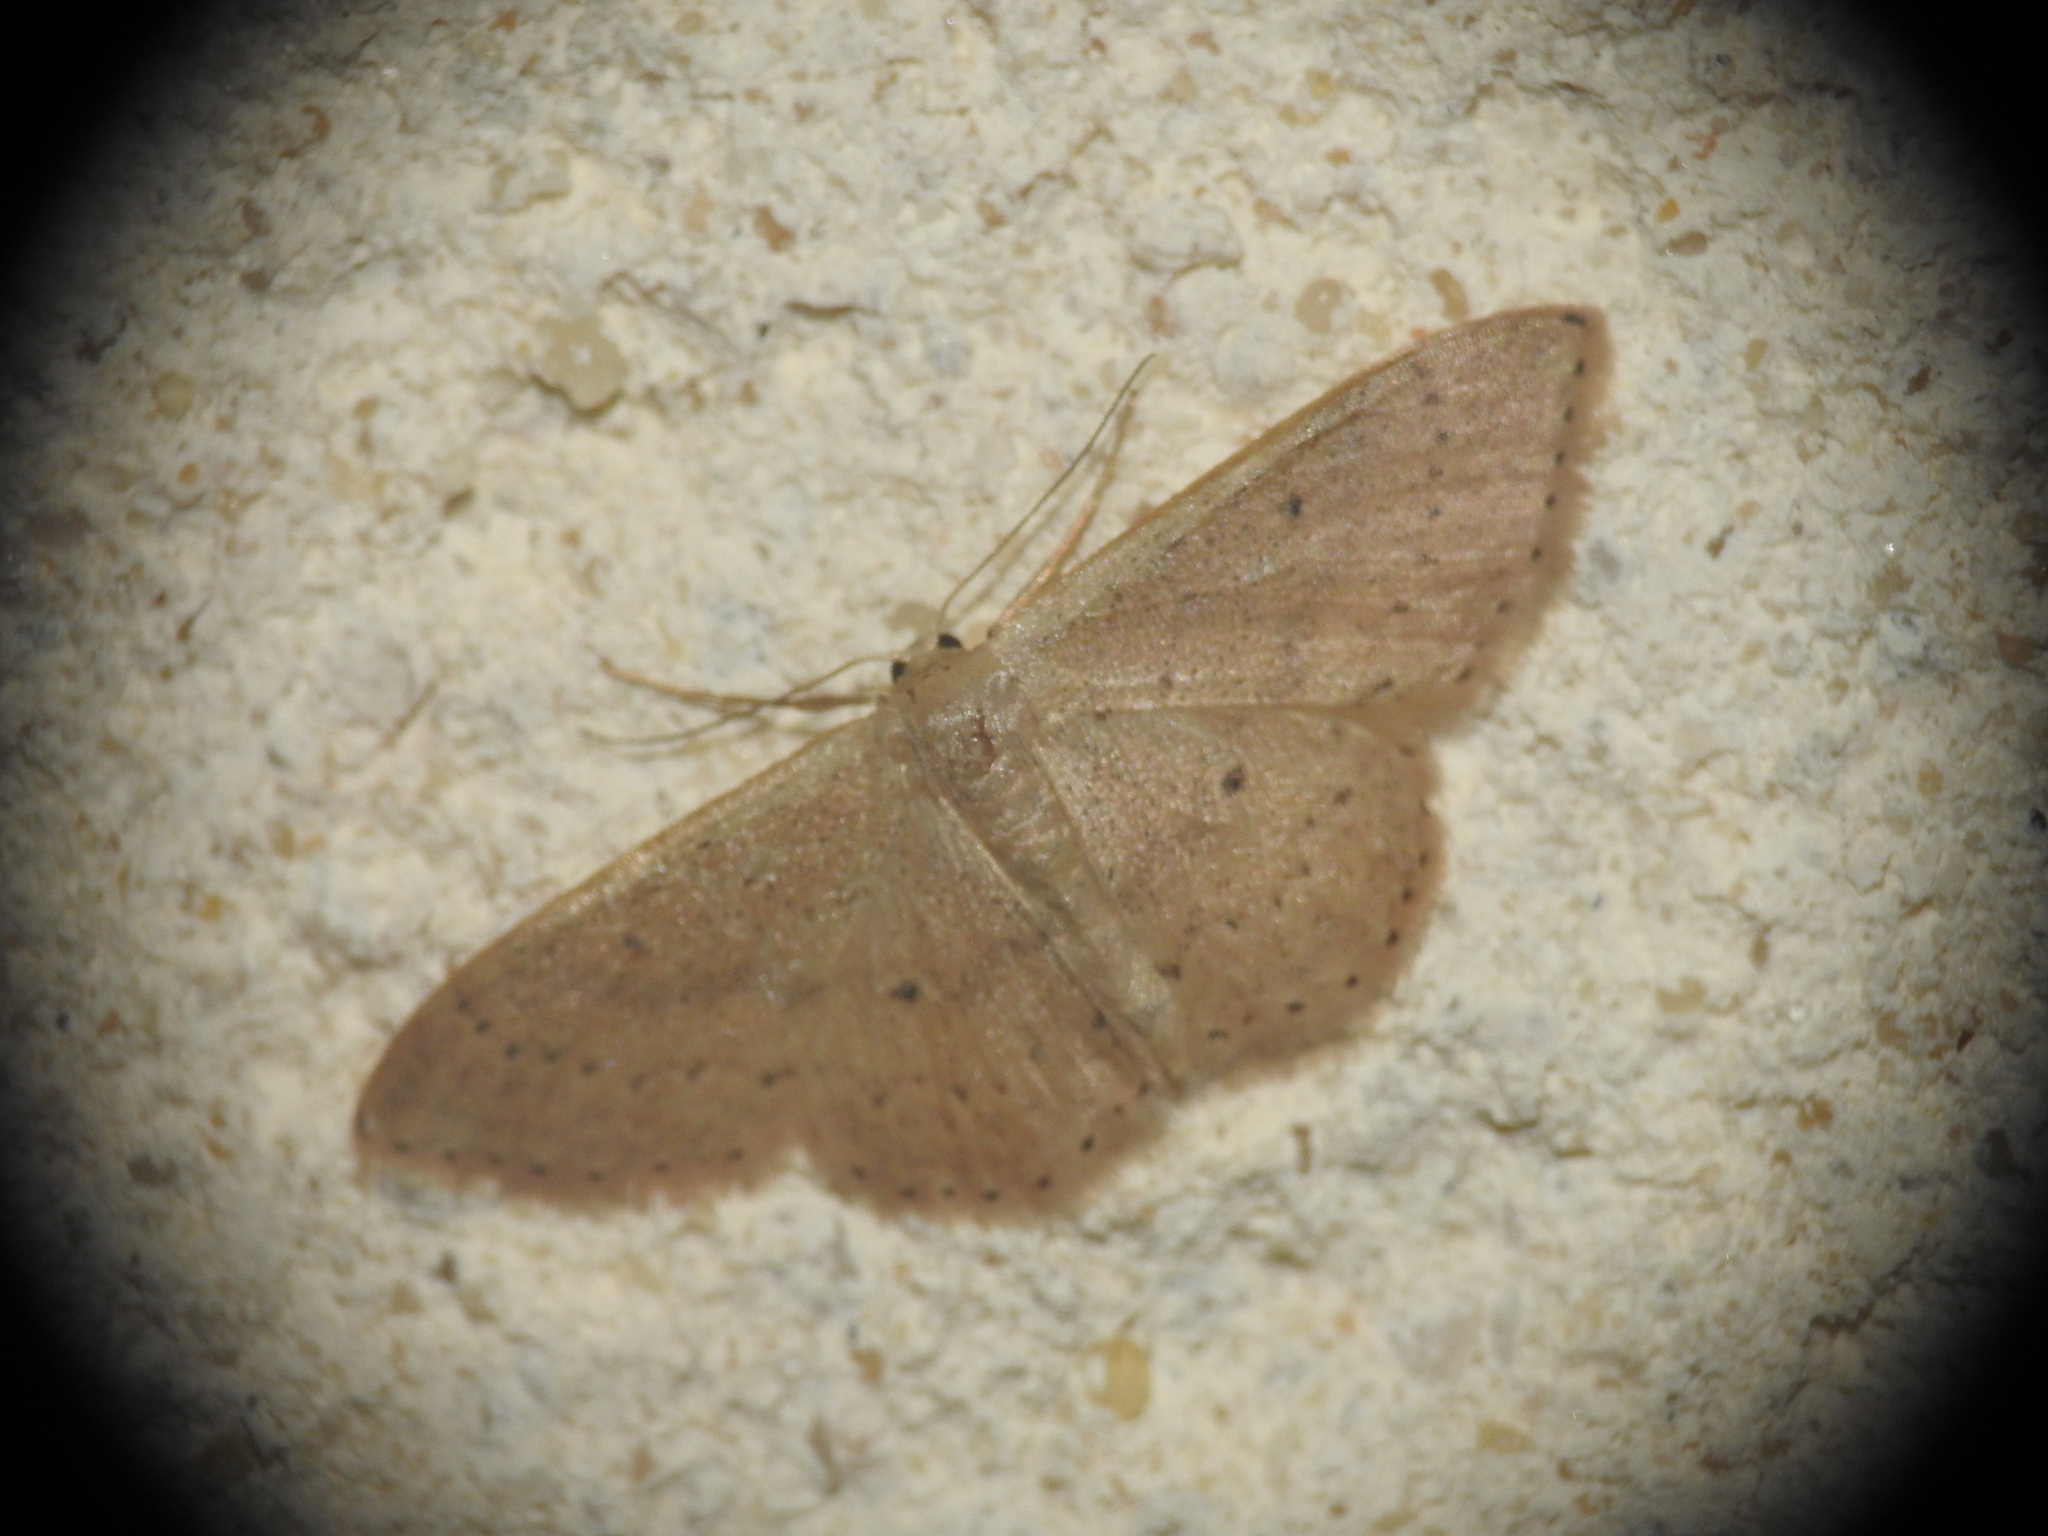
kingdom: Animalia
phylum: Arthropoda
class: Insecta
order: Lepidoptera
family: Geometridae
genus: Idaea
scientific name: Idaea distinctaria
